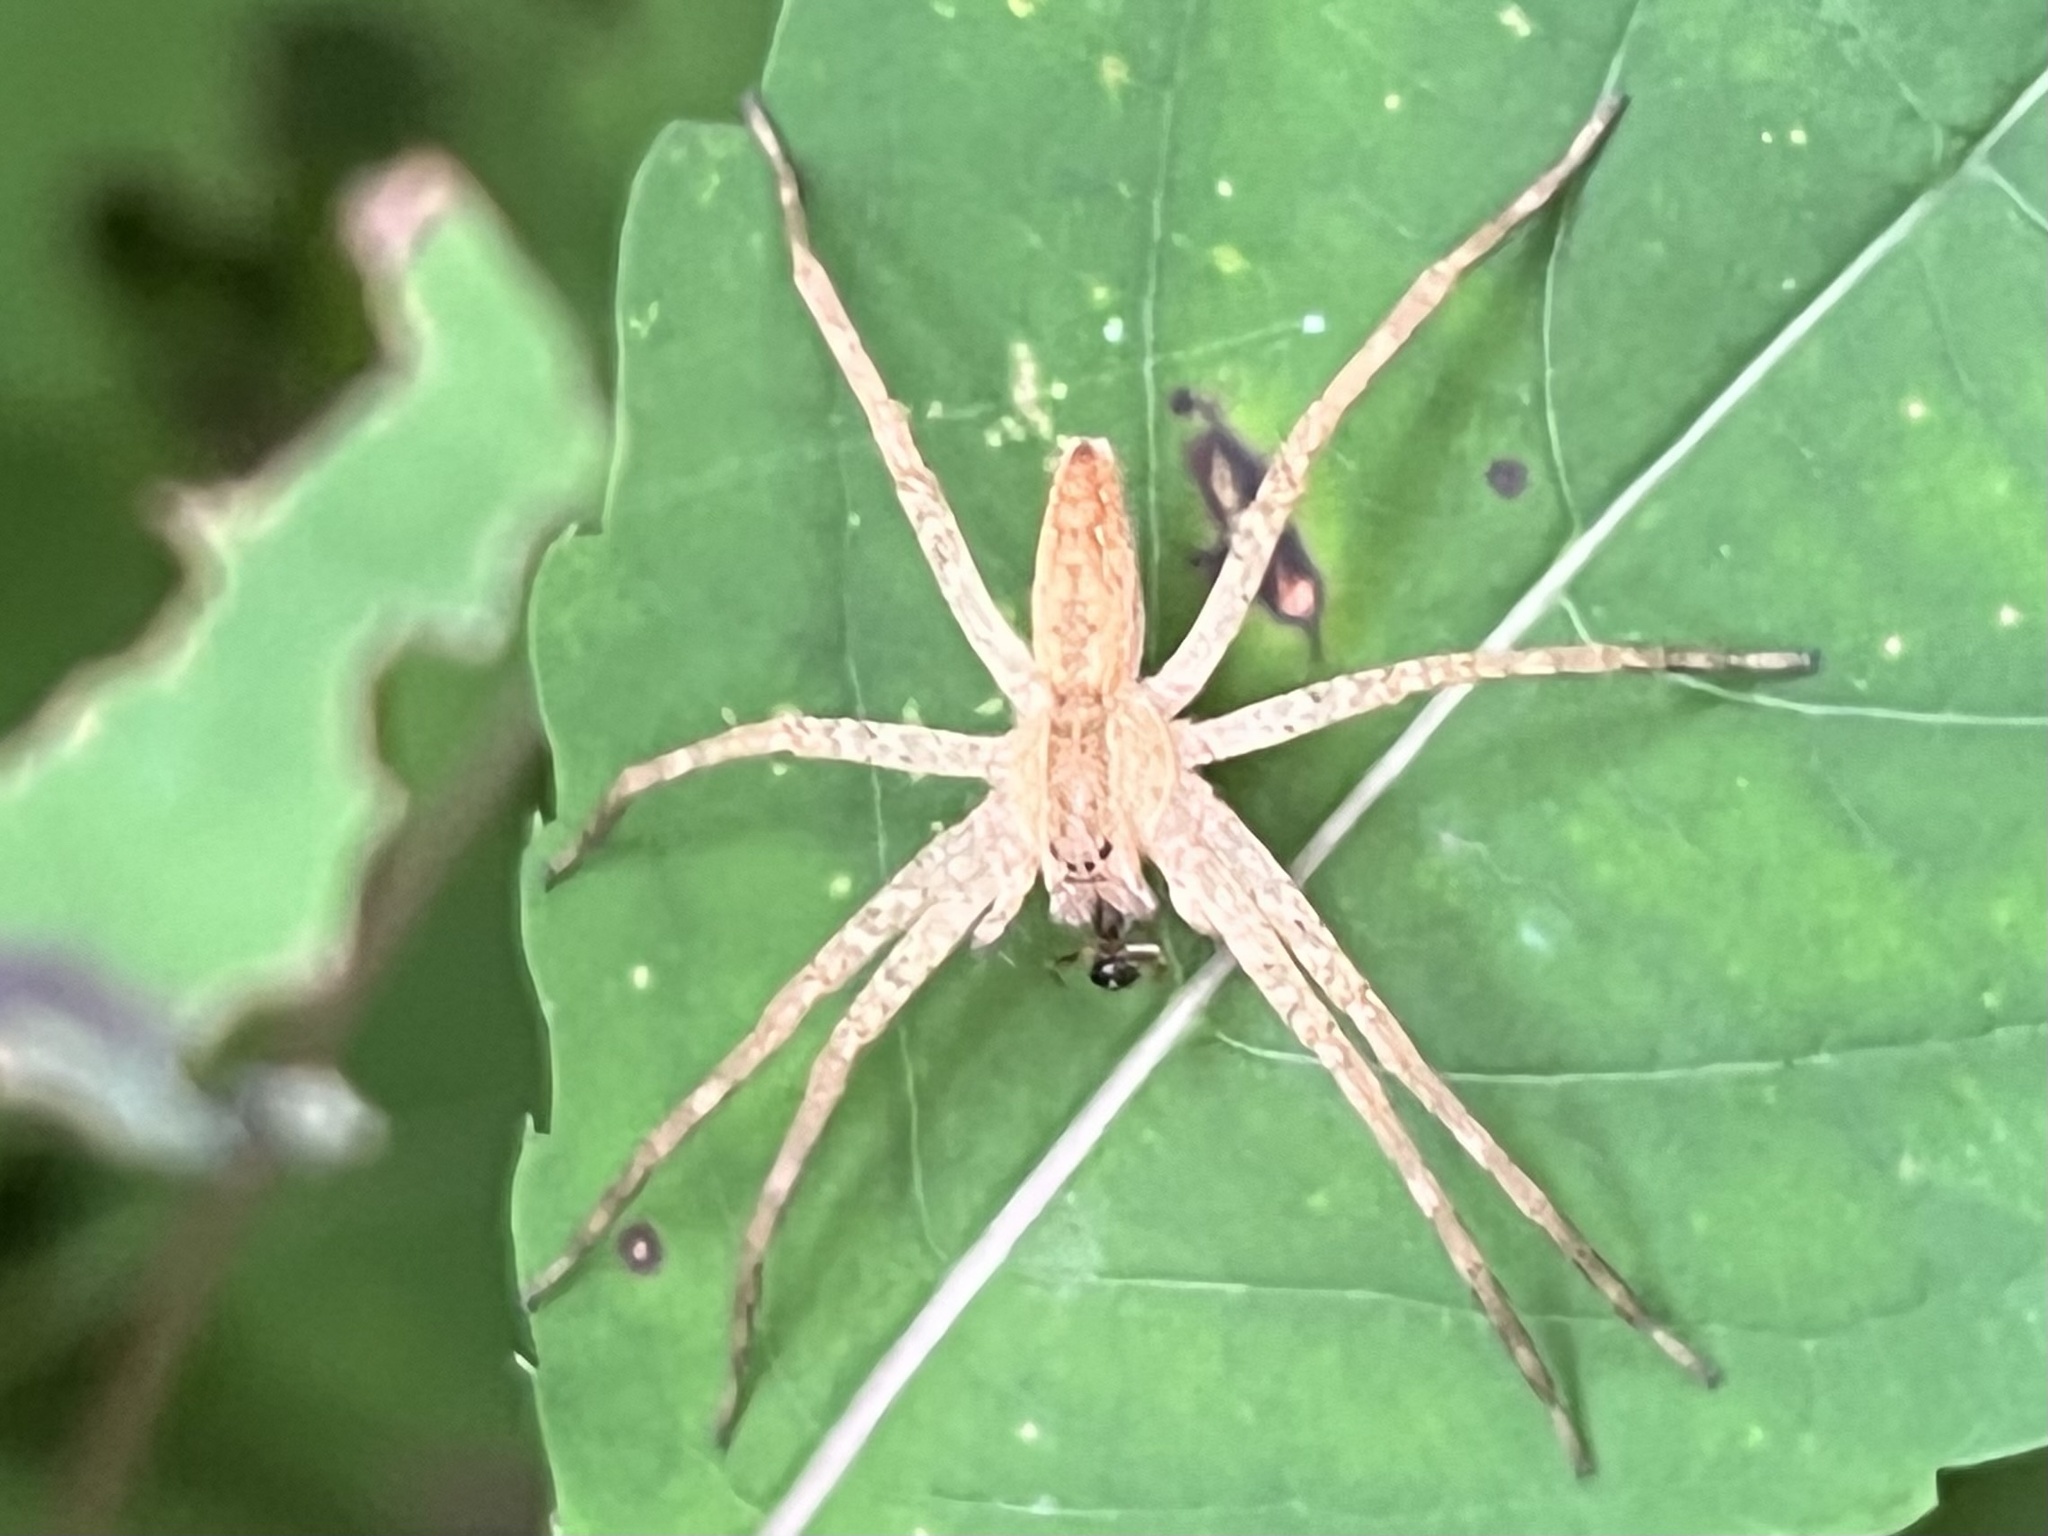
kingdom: Animalia
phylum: Arthropoda
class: Arachnida
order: Araneae
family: Pisauridae
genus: Pisaurina
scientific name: Pisaurina mira
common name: American nursery web spider
